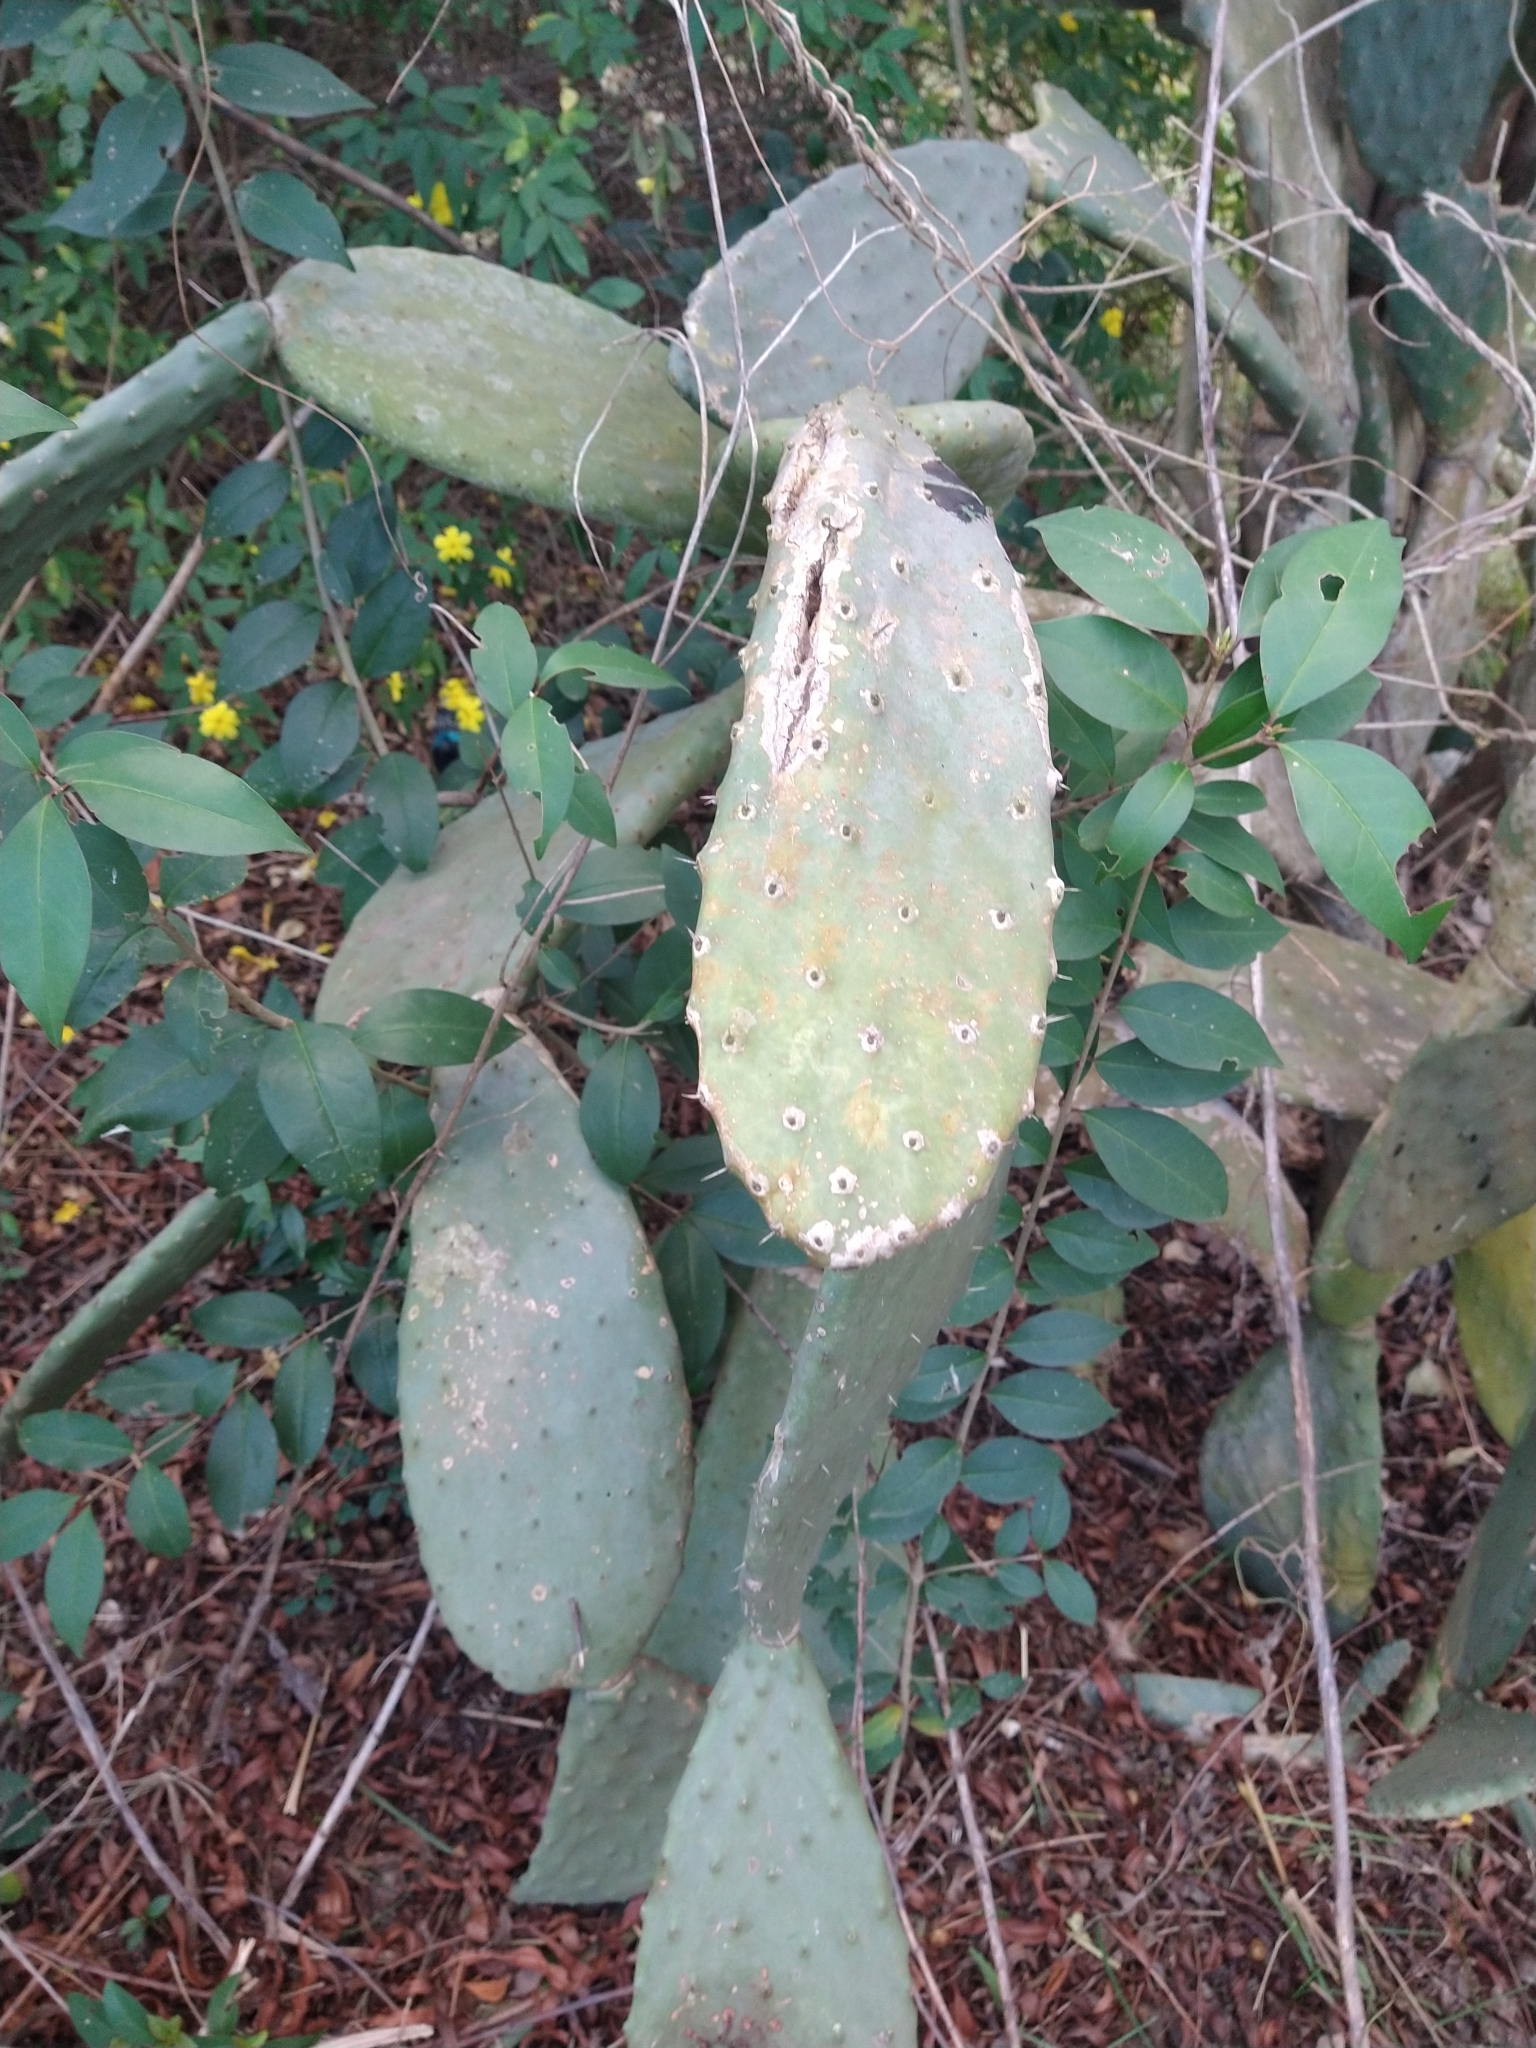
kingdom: Plantae
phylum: Tracheophyta
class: Magnoliopsida
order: Caryophyllales
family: Cactaceae
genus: Opuntia
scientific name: Opuntia ficus-indica
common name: Barbary fig
